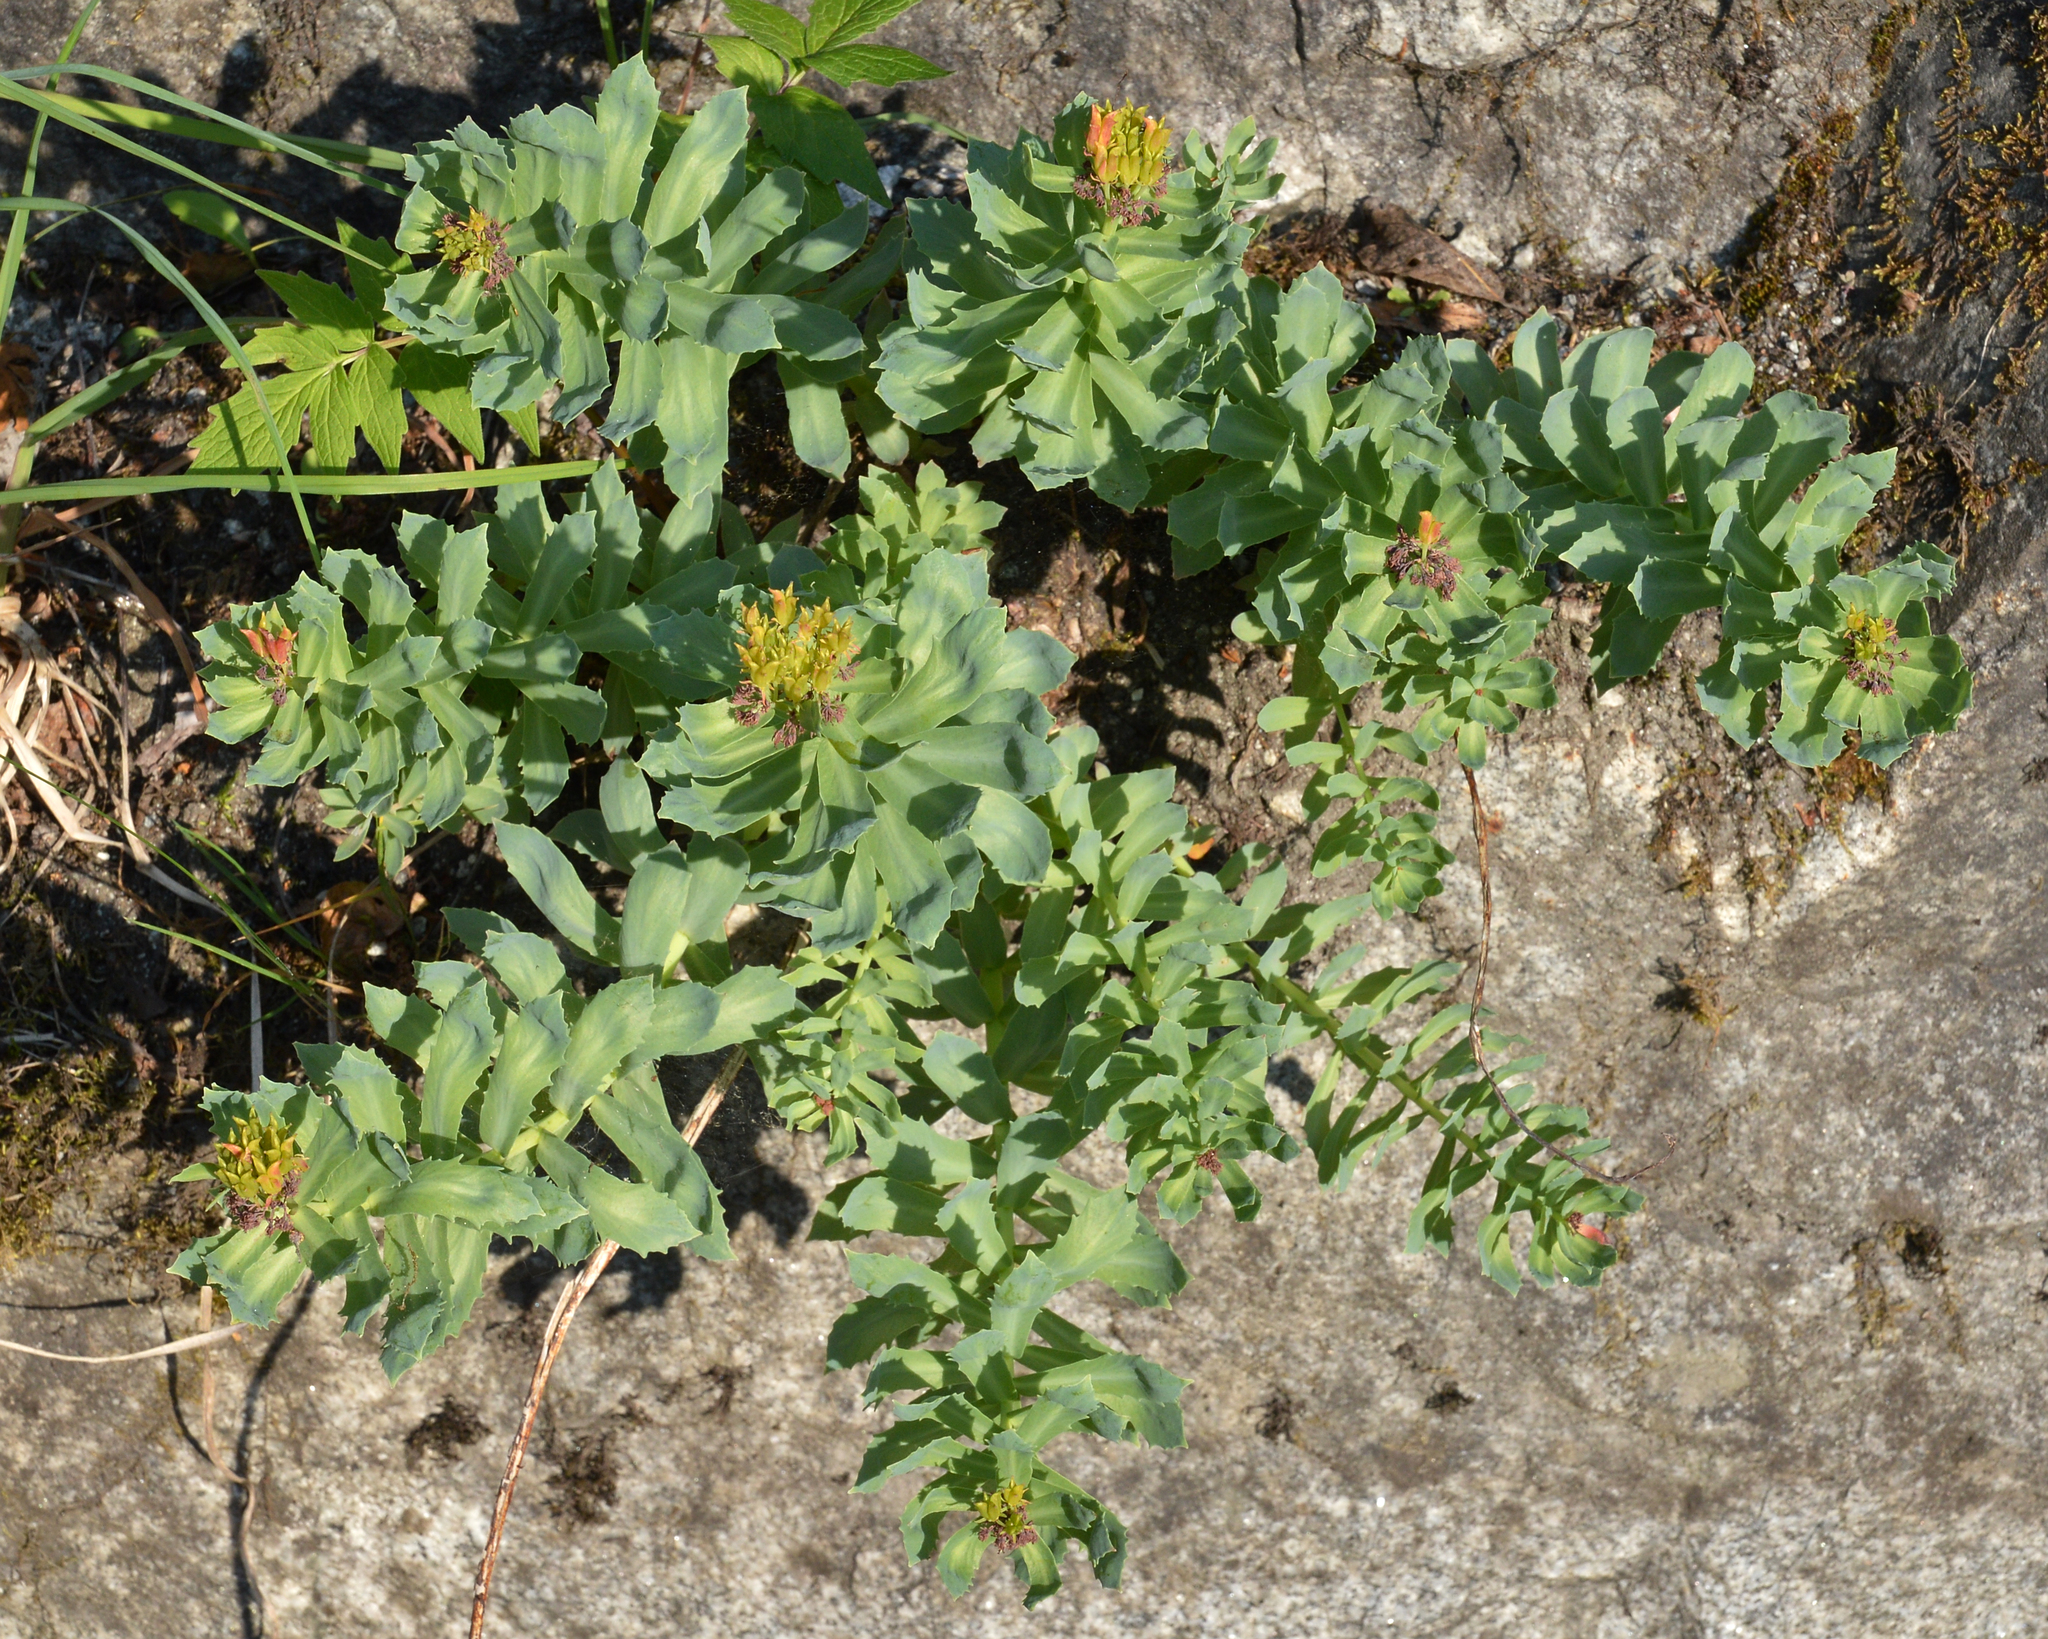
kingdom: Plantae
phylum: Tracheophyta
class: Magnoliopsida
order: Saxifragales
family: Crassulaceae
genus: Rhodiola
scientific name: Rhodiola rosea
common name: Roseroot
